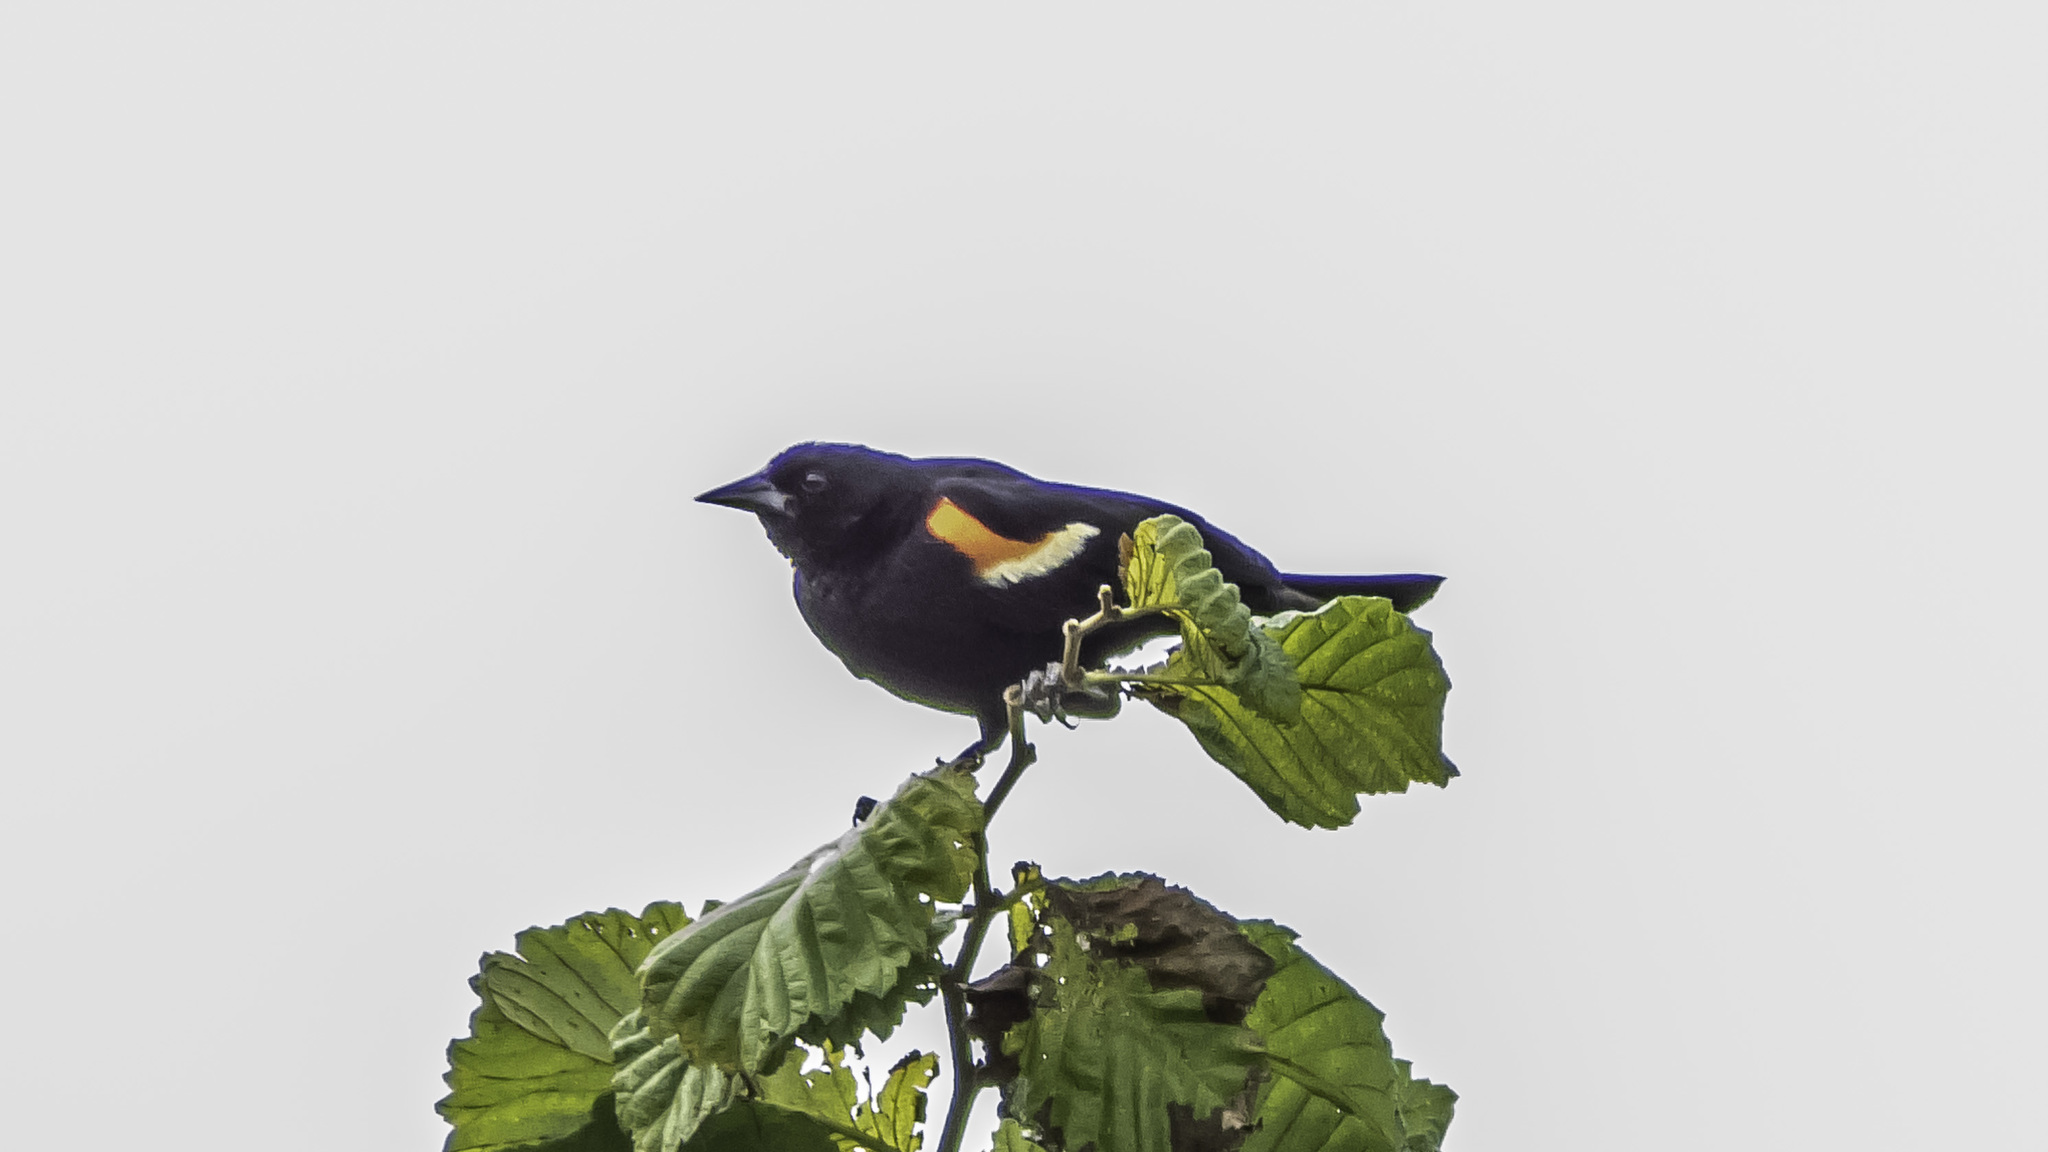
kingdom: Animalia
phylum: Chordata
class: Aves
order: Passeriformes
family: Icteridae
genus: Agelaius
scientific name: Agelaius phoeniceus
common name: Red-winged blackbird
